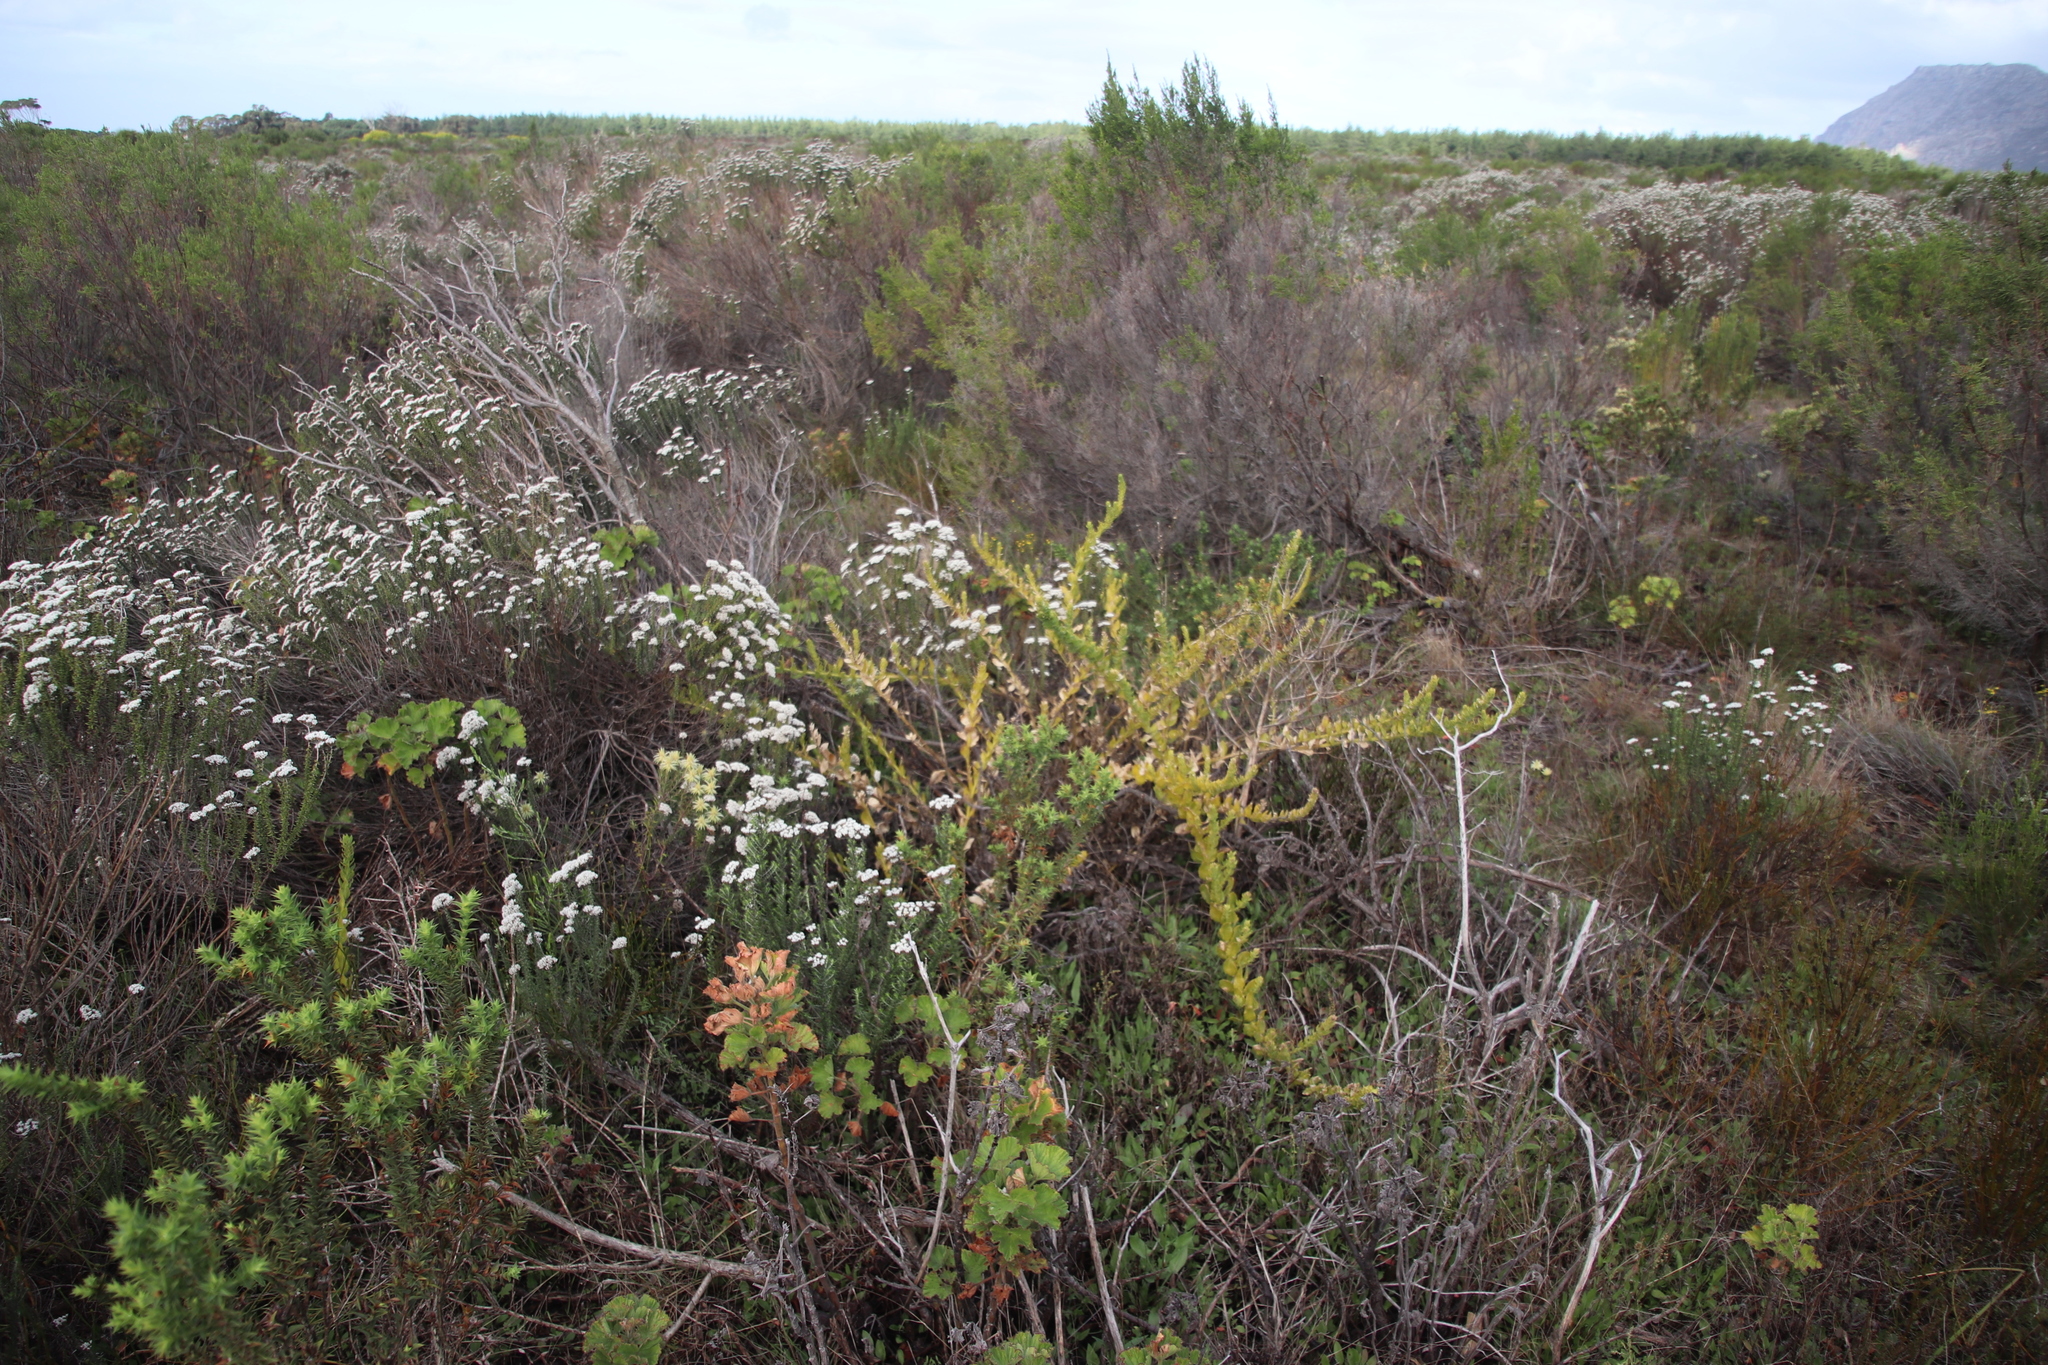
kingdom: Plantae
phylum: Tracheophyta
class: Magnoliopsida
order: Lamiales
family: Scrophulariaceae
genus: Oftia
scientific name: Oftia africana
